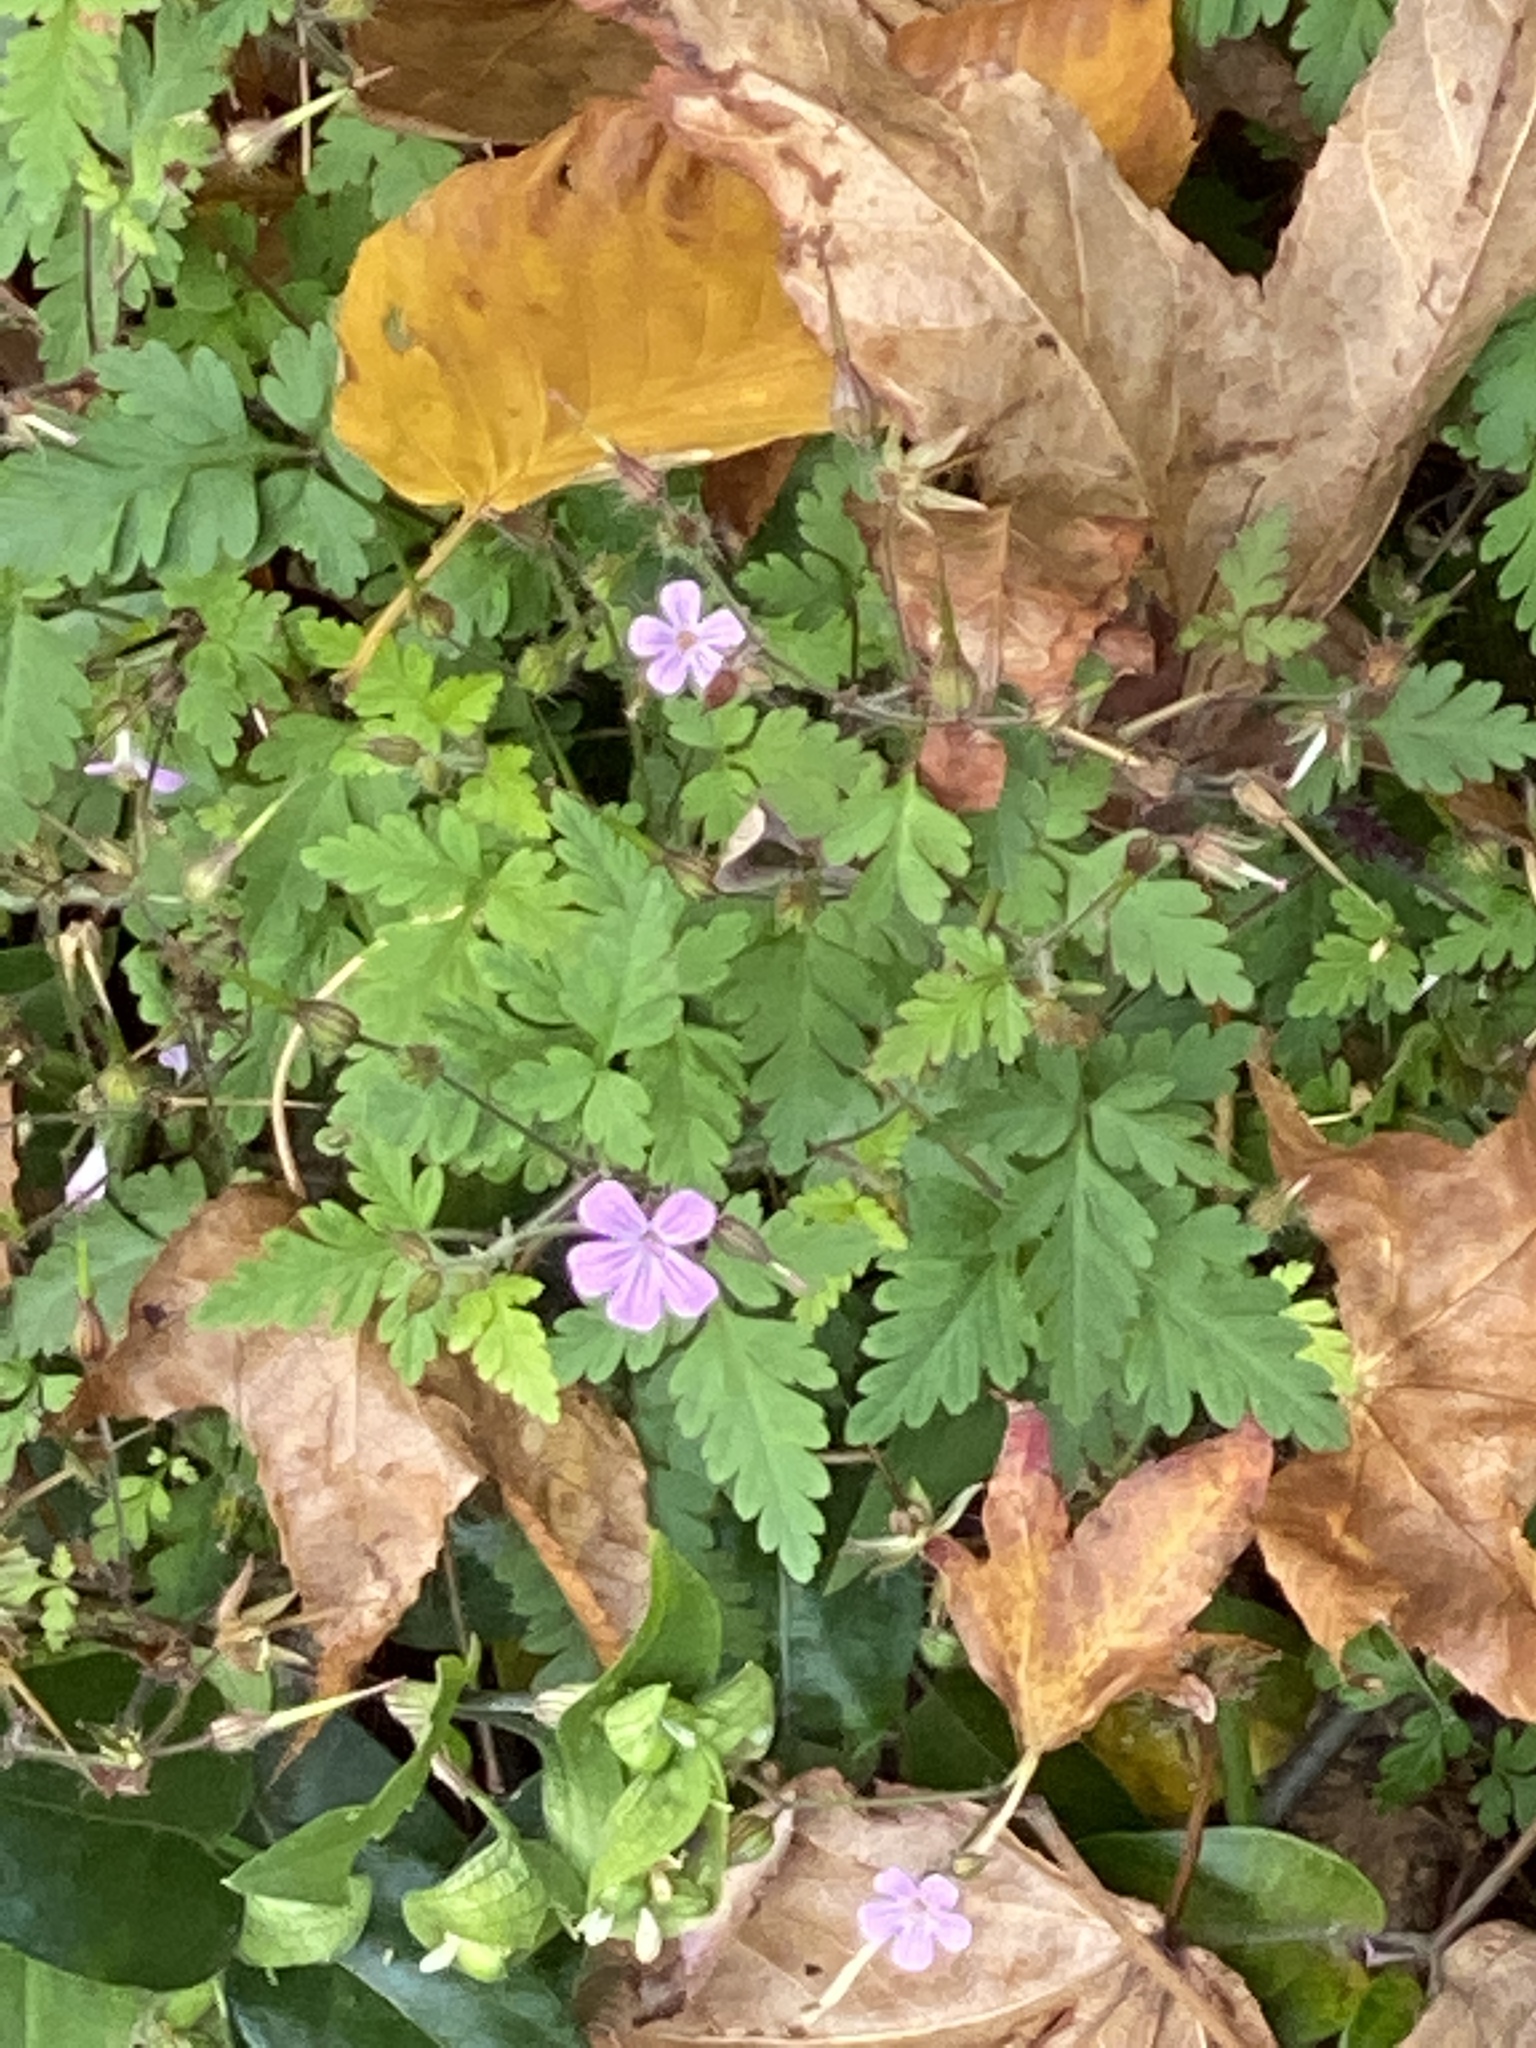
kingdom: Plantae
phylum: Tracheophyta
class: Magnoliopsida
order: Geraniales
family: Geraniaceae
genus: Geranium
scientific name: Geranium robertianum
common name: Herb-robert
